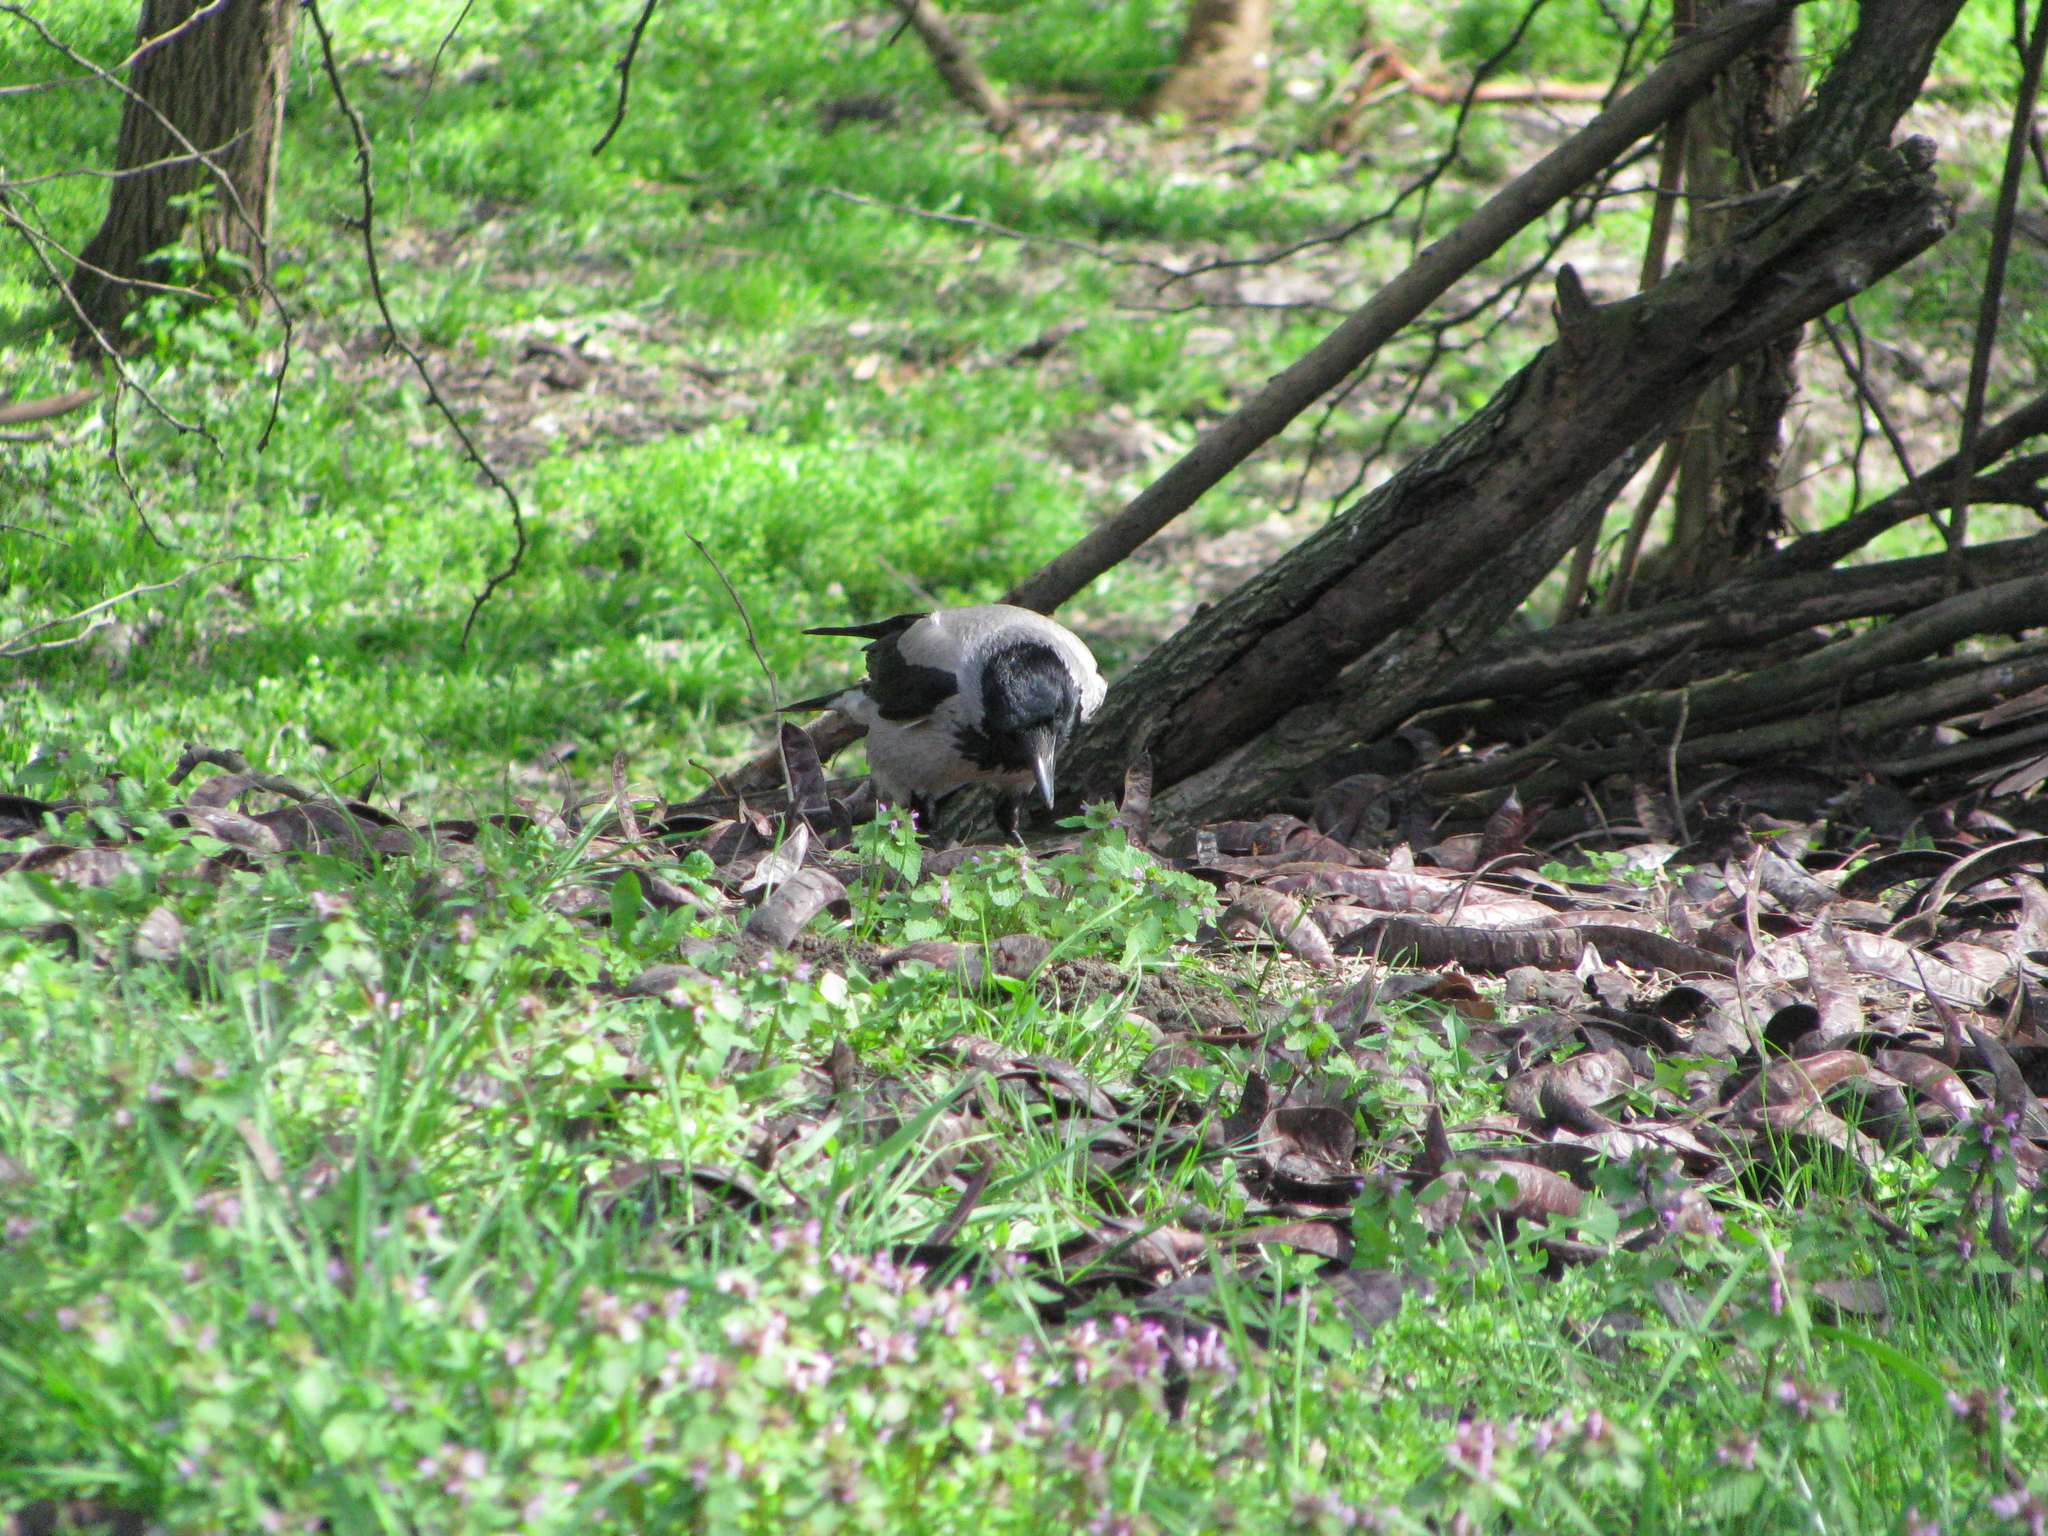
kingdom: Animalia
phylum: Chordata
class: Aves
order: Passeriformes
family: Corvidae
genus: Corvus
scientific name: Corvus cornix
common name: Hooded crow
